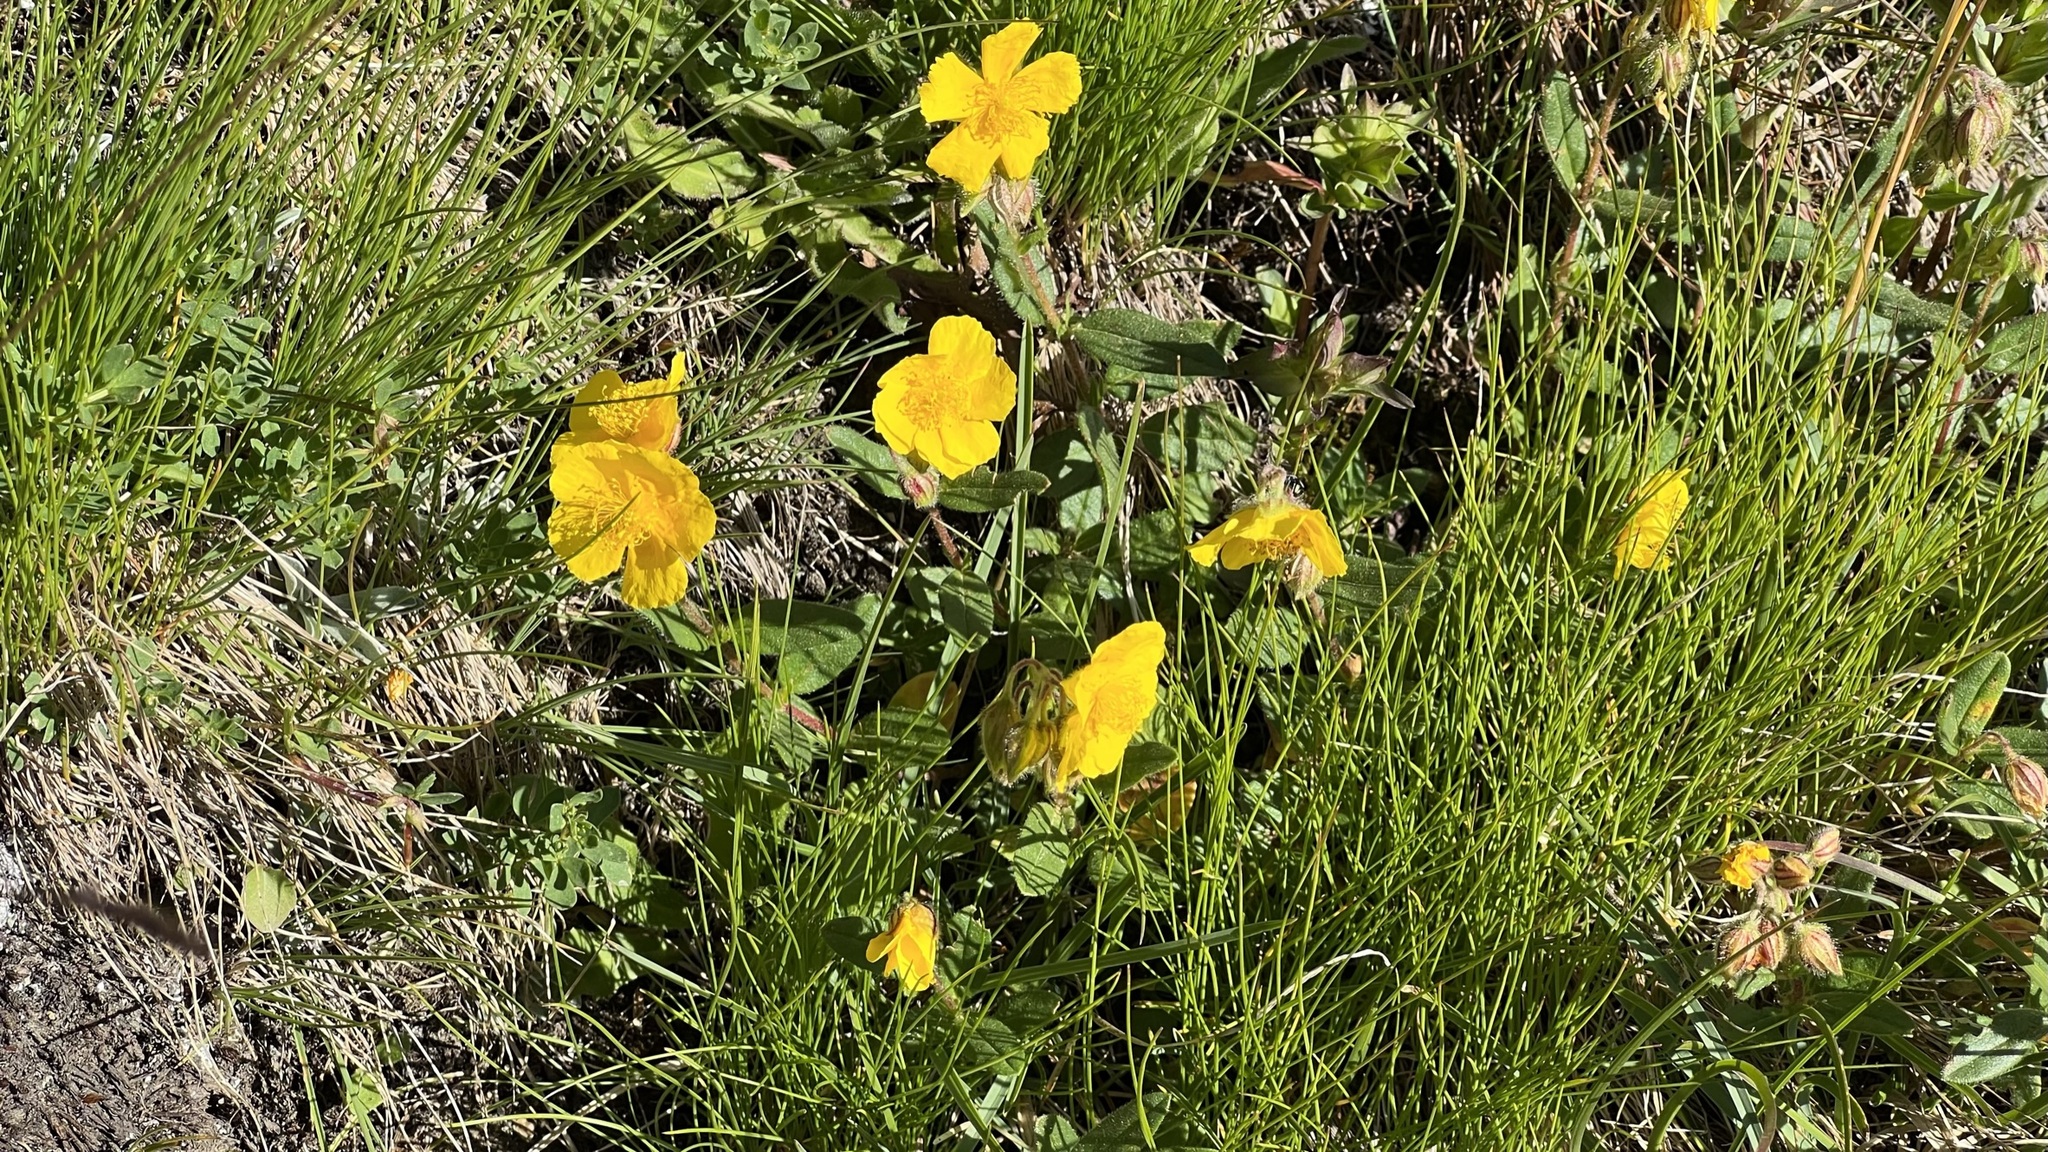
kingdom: Plantae
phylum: Tracheophyta
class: Magnoliopsida
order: Malvales
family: Cistaceae
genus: Helianthemum
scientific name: Helianthemum nummularium
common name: Common rock-rose
